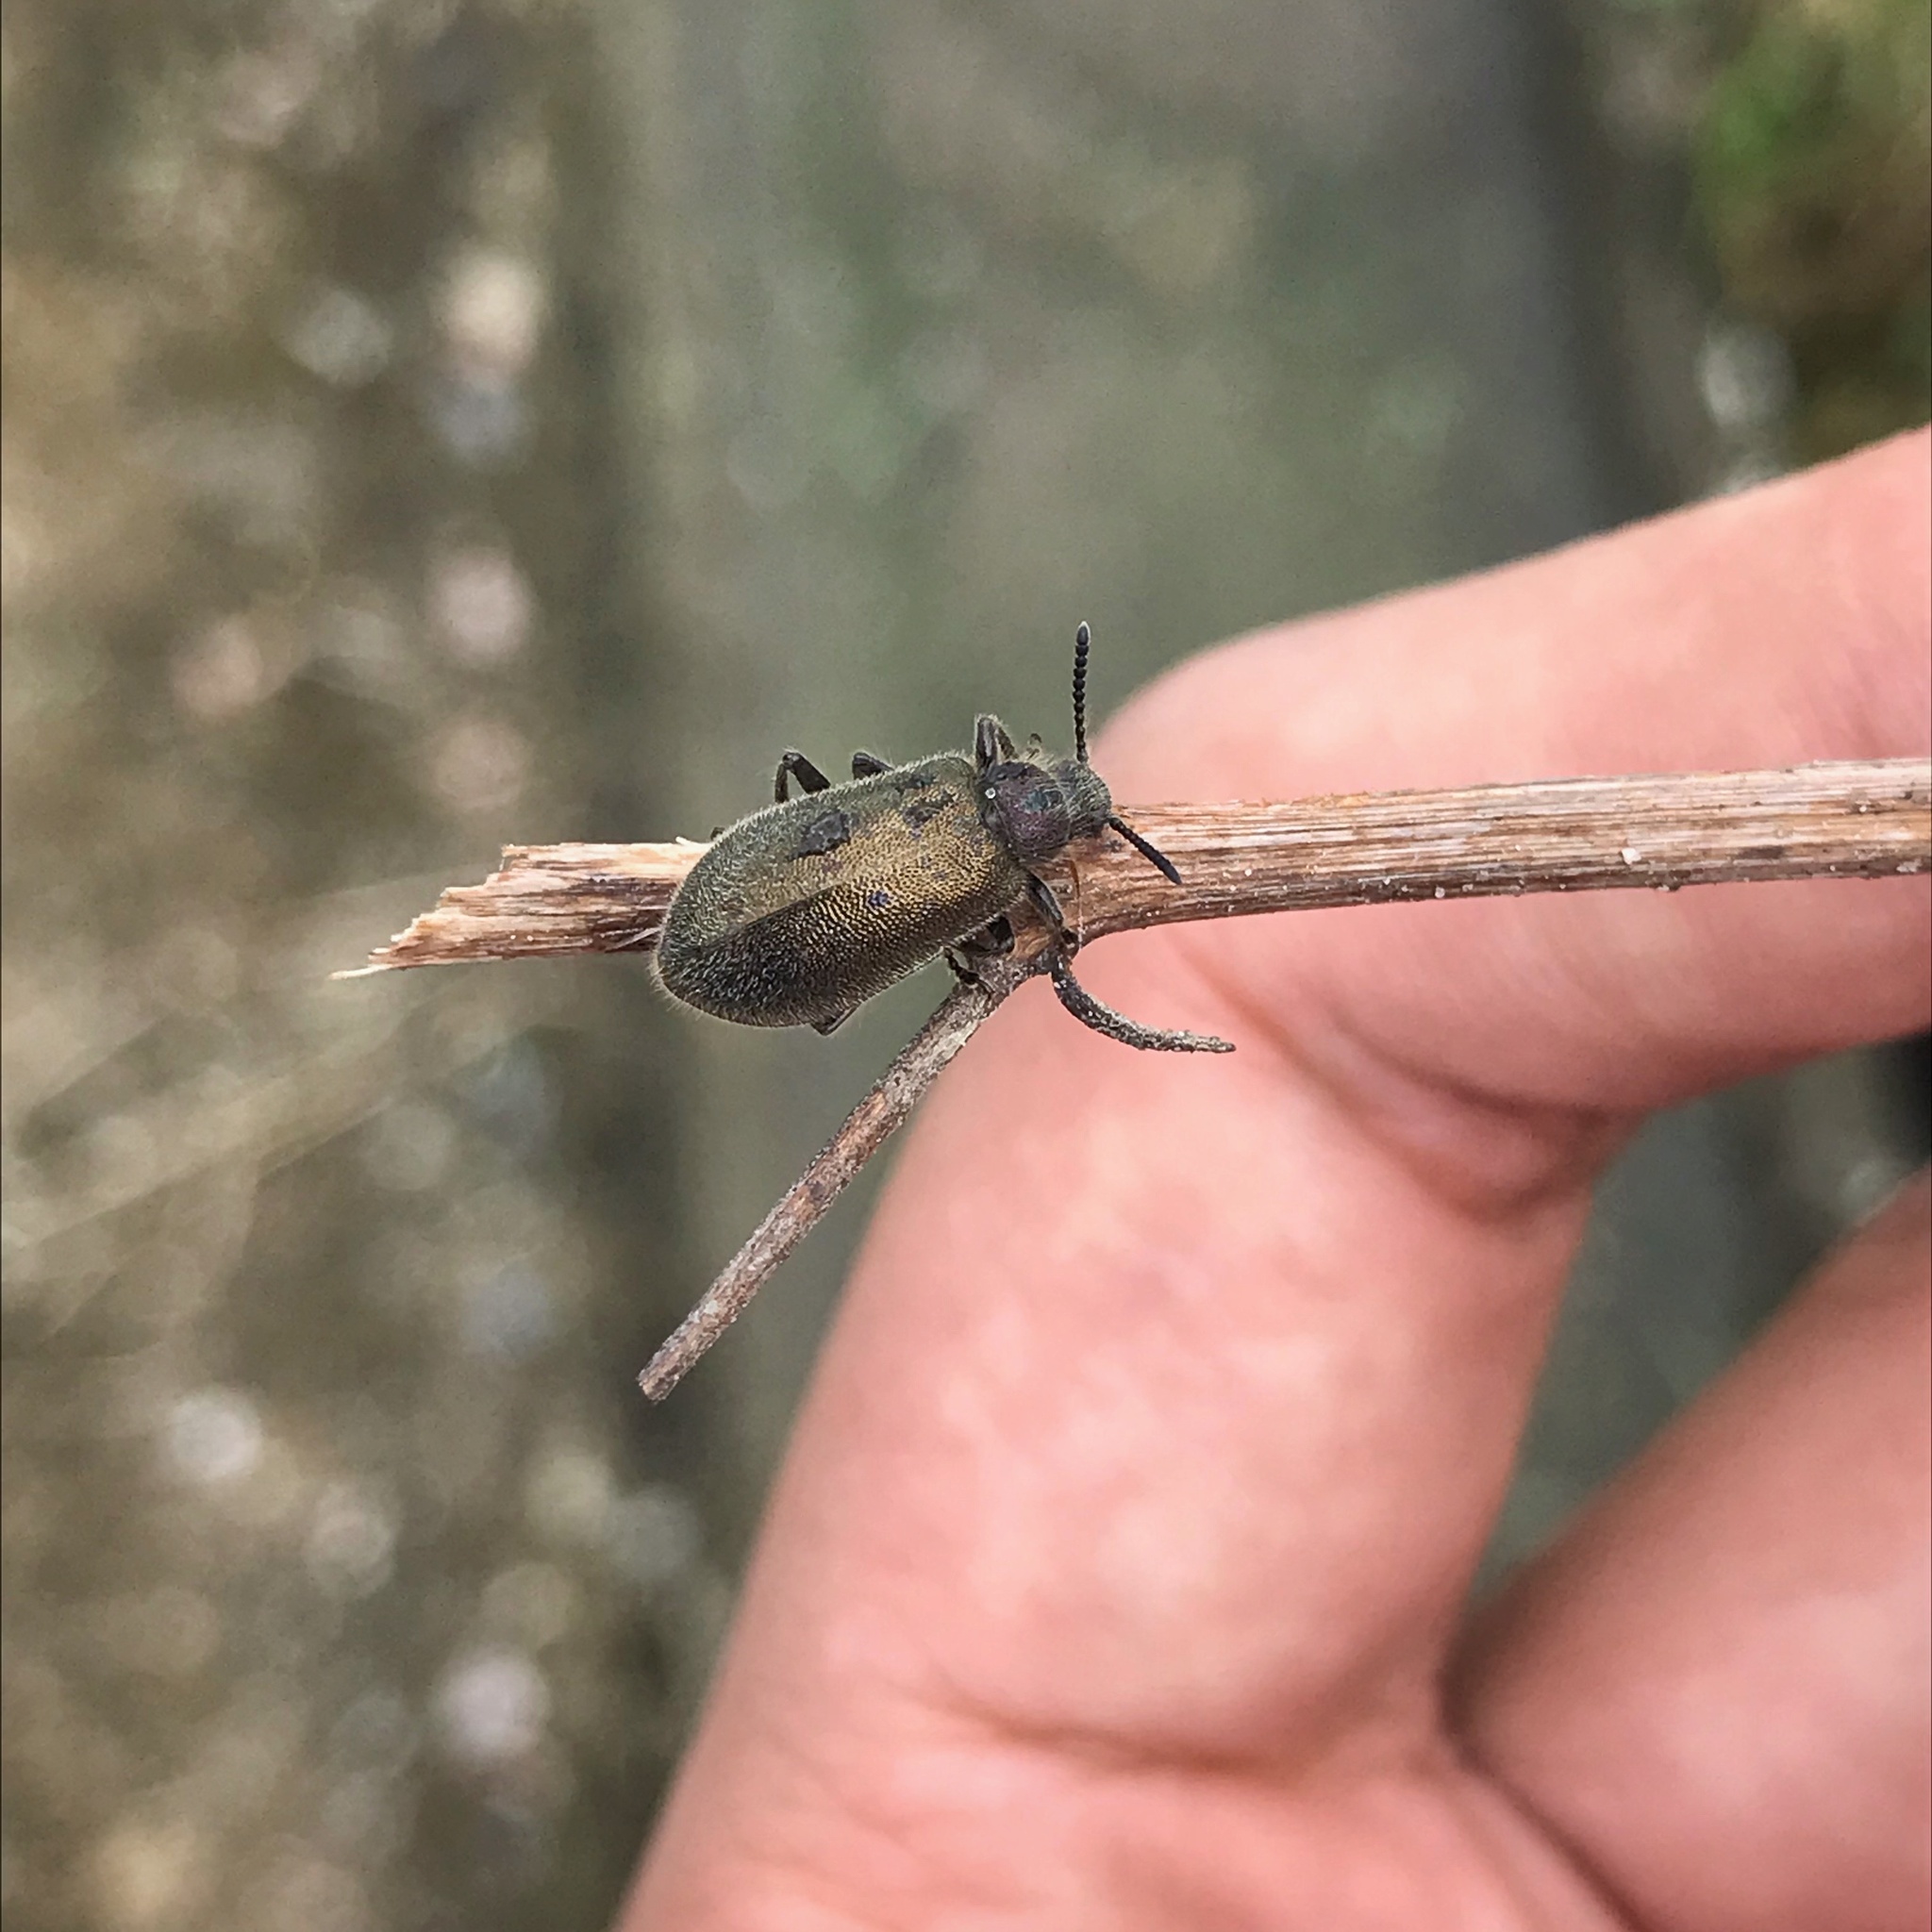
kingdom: Animalia
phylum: Arthropoda
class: Insecta
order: Coleoptera
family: Tenebrionidae
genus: Lagria
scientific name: Lagria villosa
